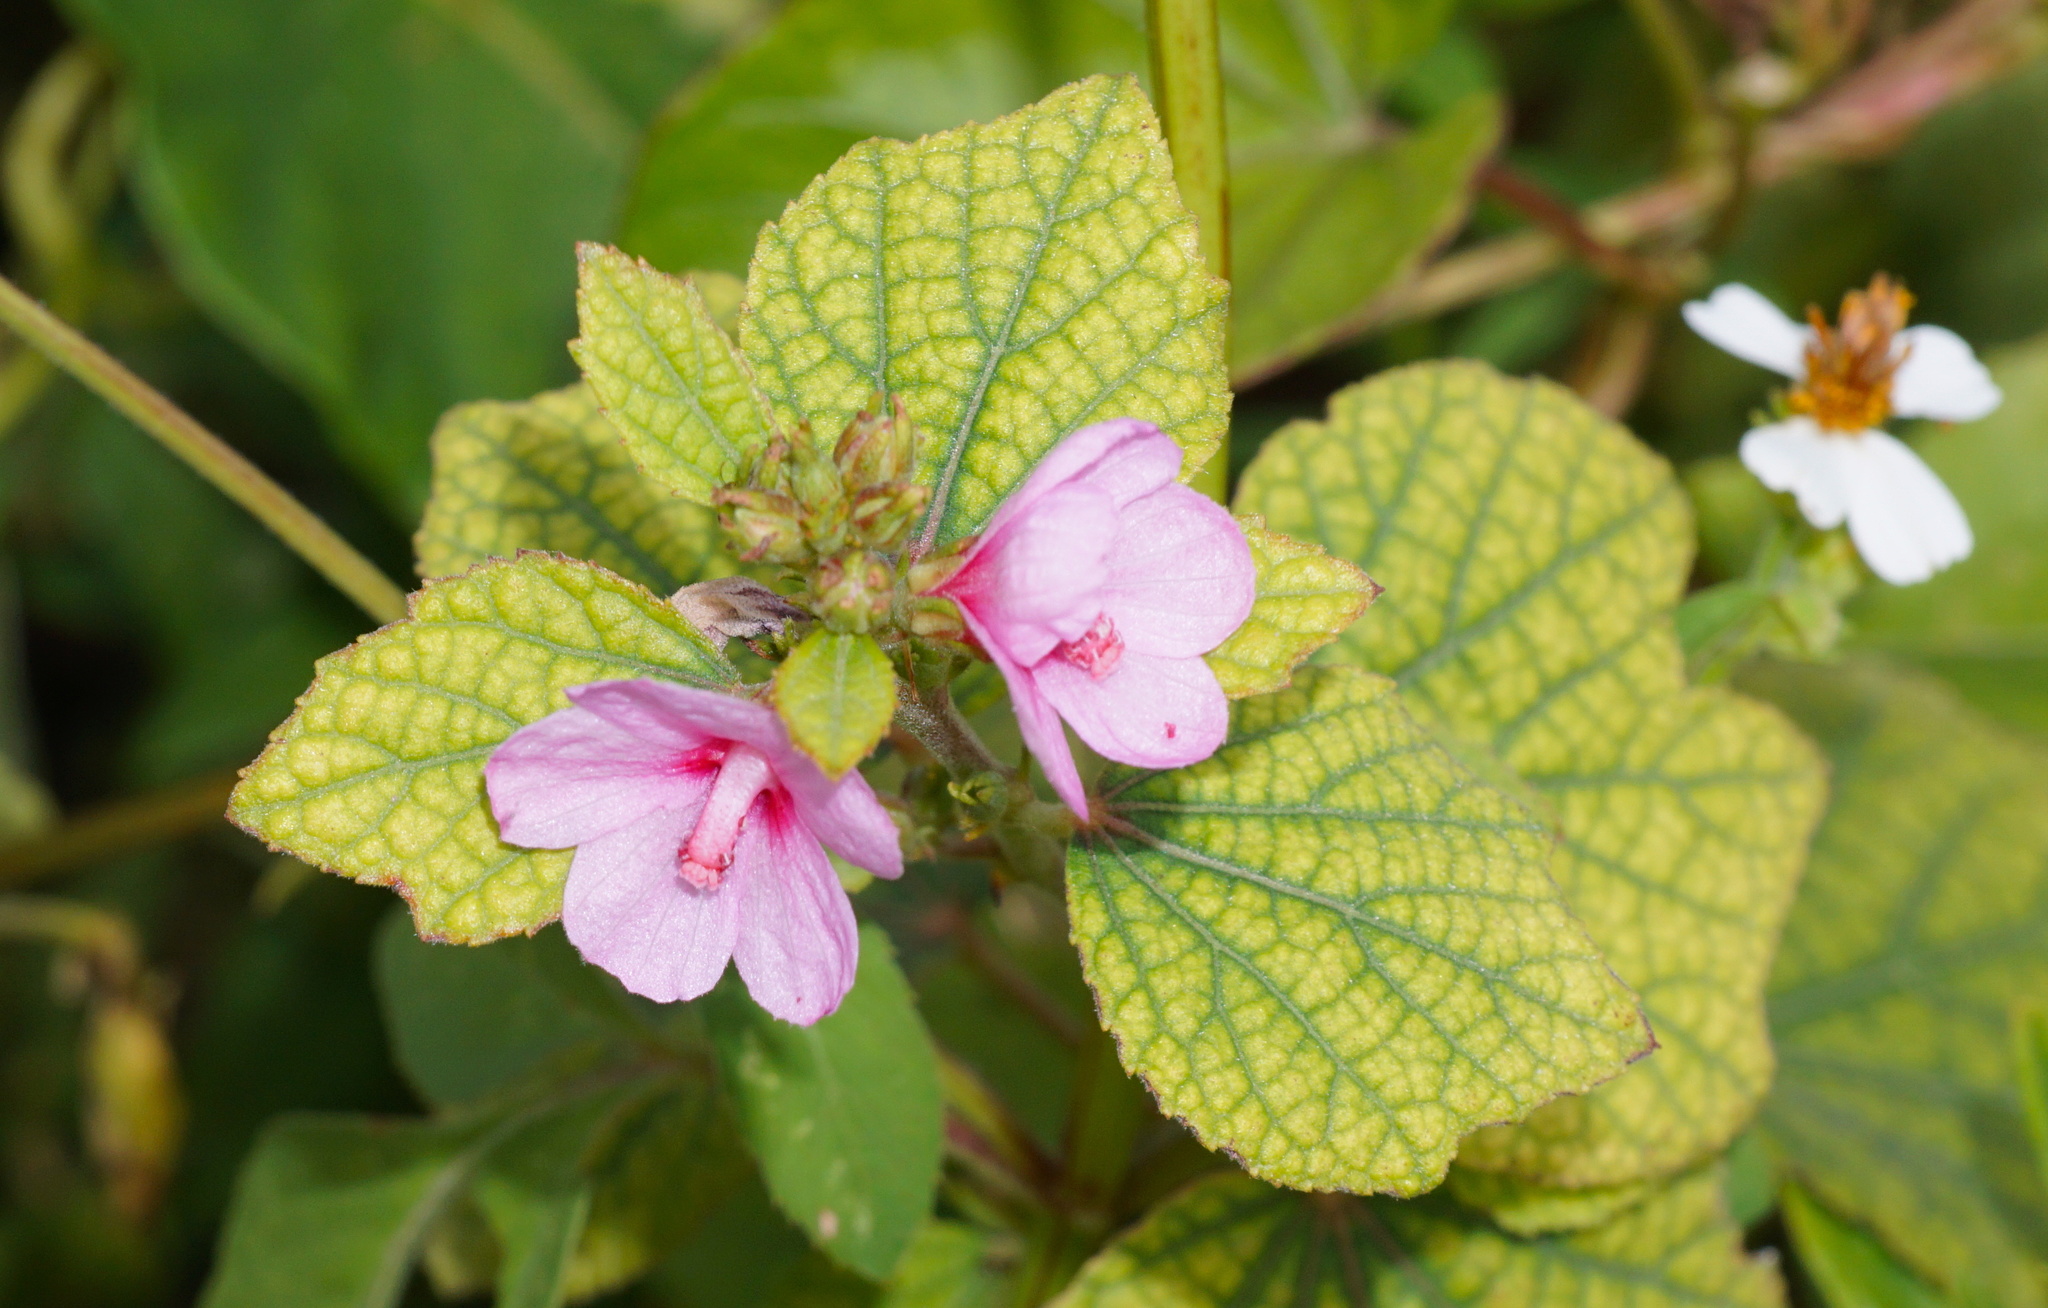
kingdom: Plantae
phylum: Tracheophyta
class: Magnoliopsida
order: Malvales
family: Malvaceae
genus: Urena
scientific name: Urena lobata
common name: Caesarweed
